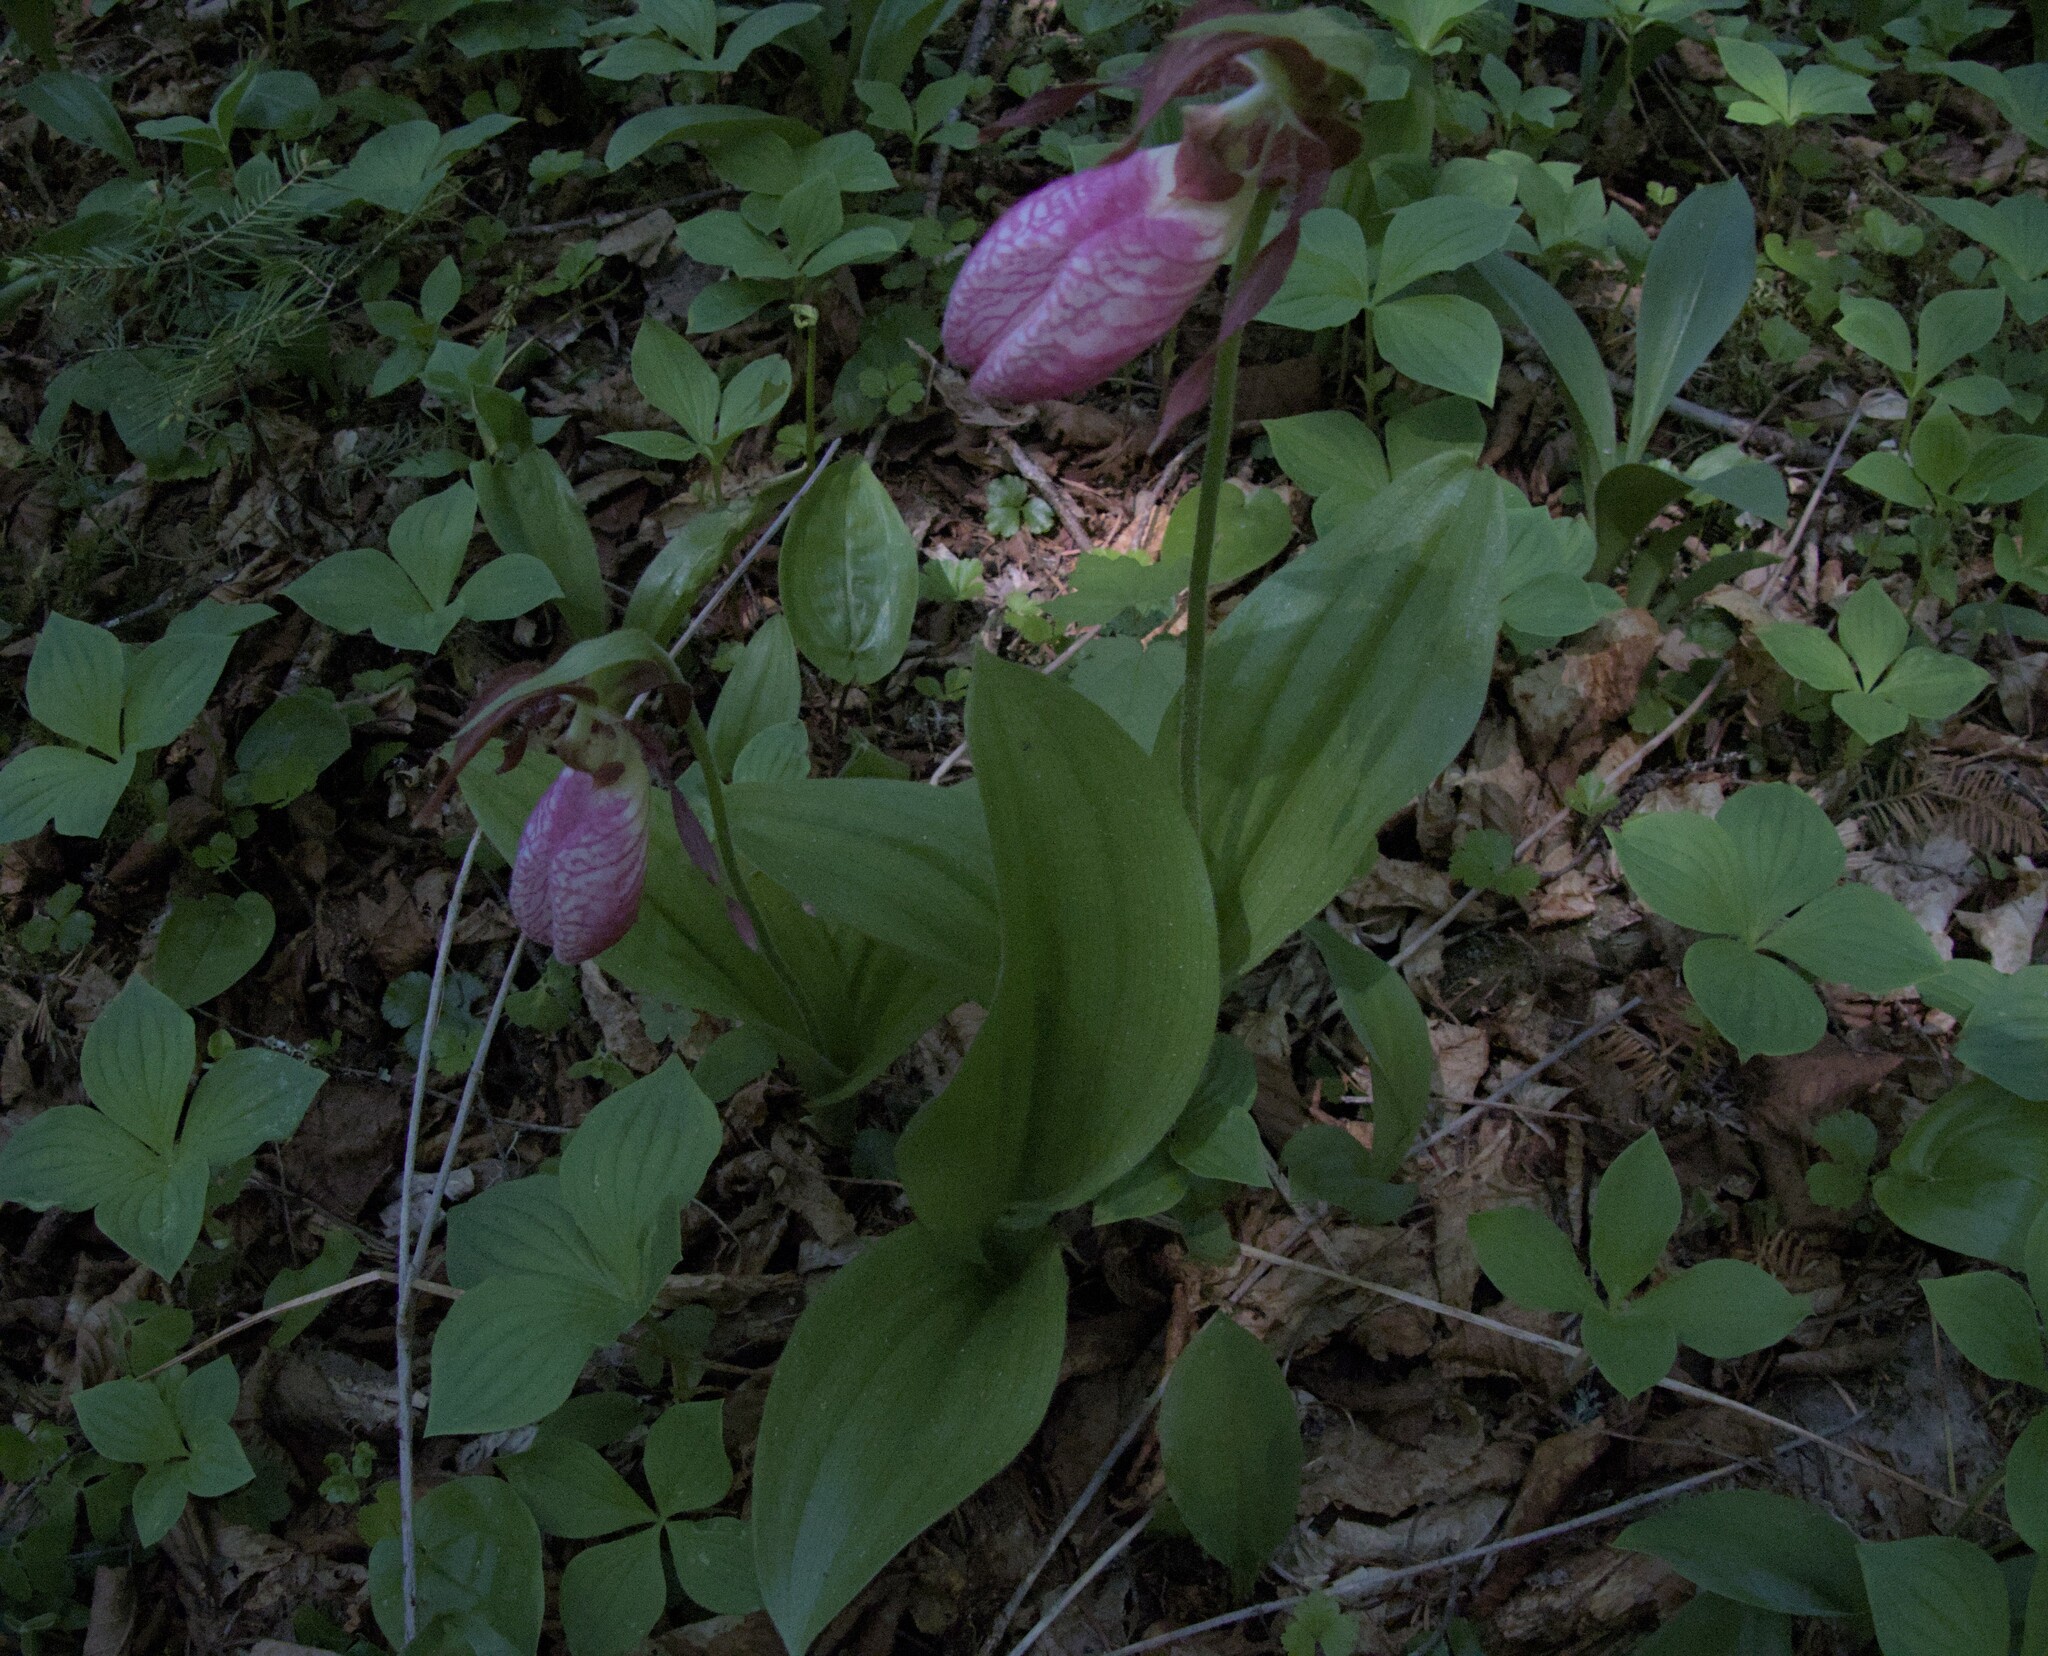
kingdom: Plantae
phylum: Tracheophyta
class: Liliopsida
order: Asparagales
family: Orchidaceae
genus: Cypripedium
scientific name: Cypripedium acaule
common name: Pink lady's-slipper
